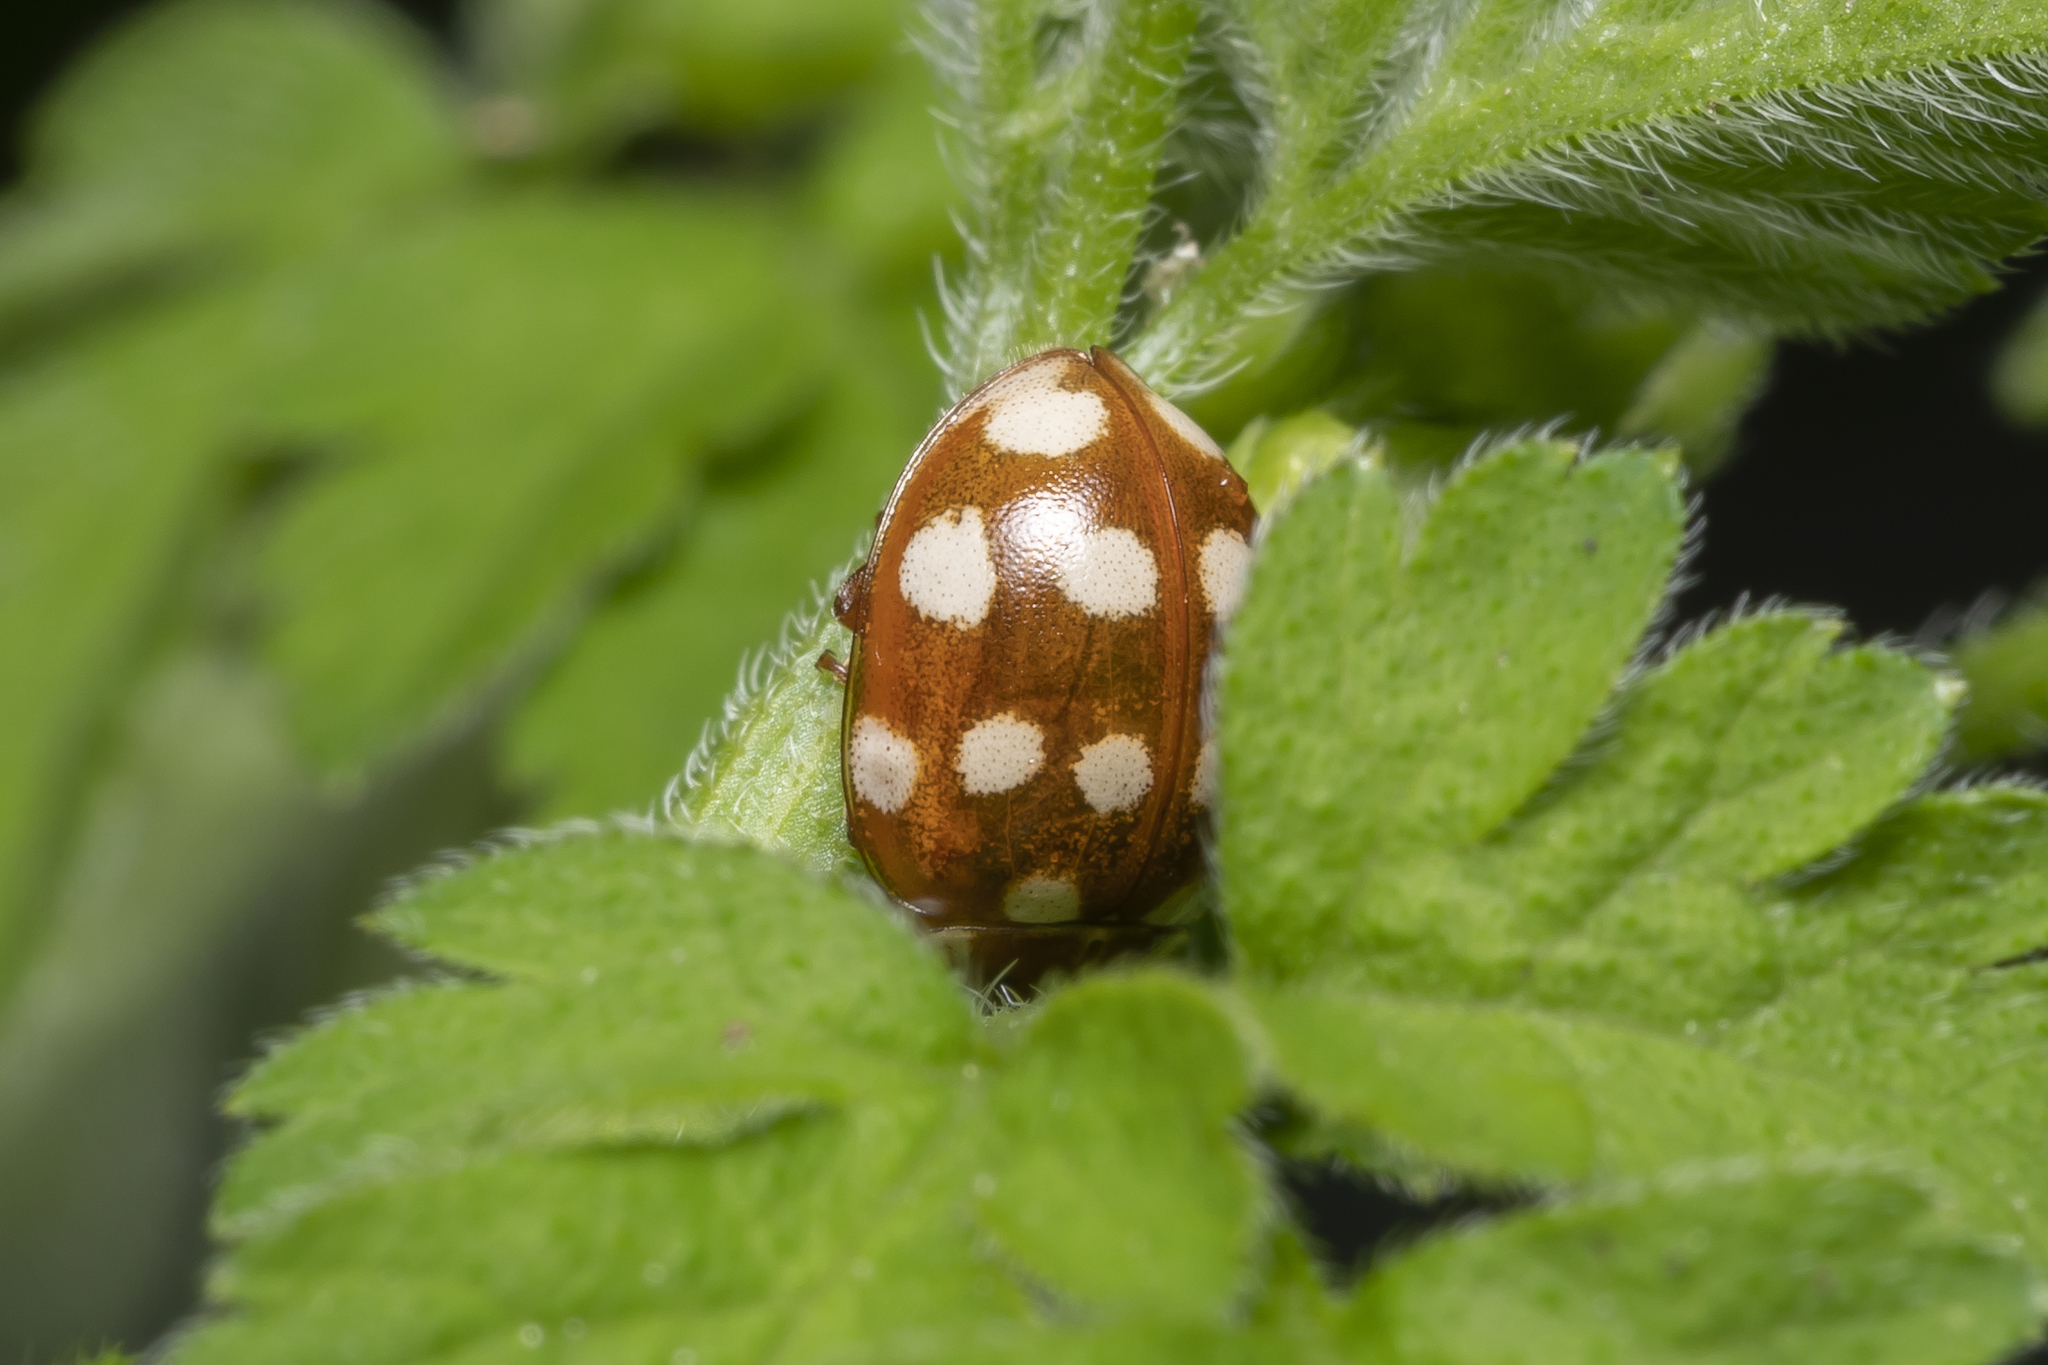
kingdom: Animalia
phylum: Arthropoda
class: Insecta
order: Coleoptera
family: Coccinellidae
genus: Calvia
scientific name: Calvia quatuordecimguttata
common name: Cream-spot ladybird
